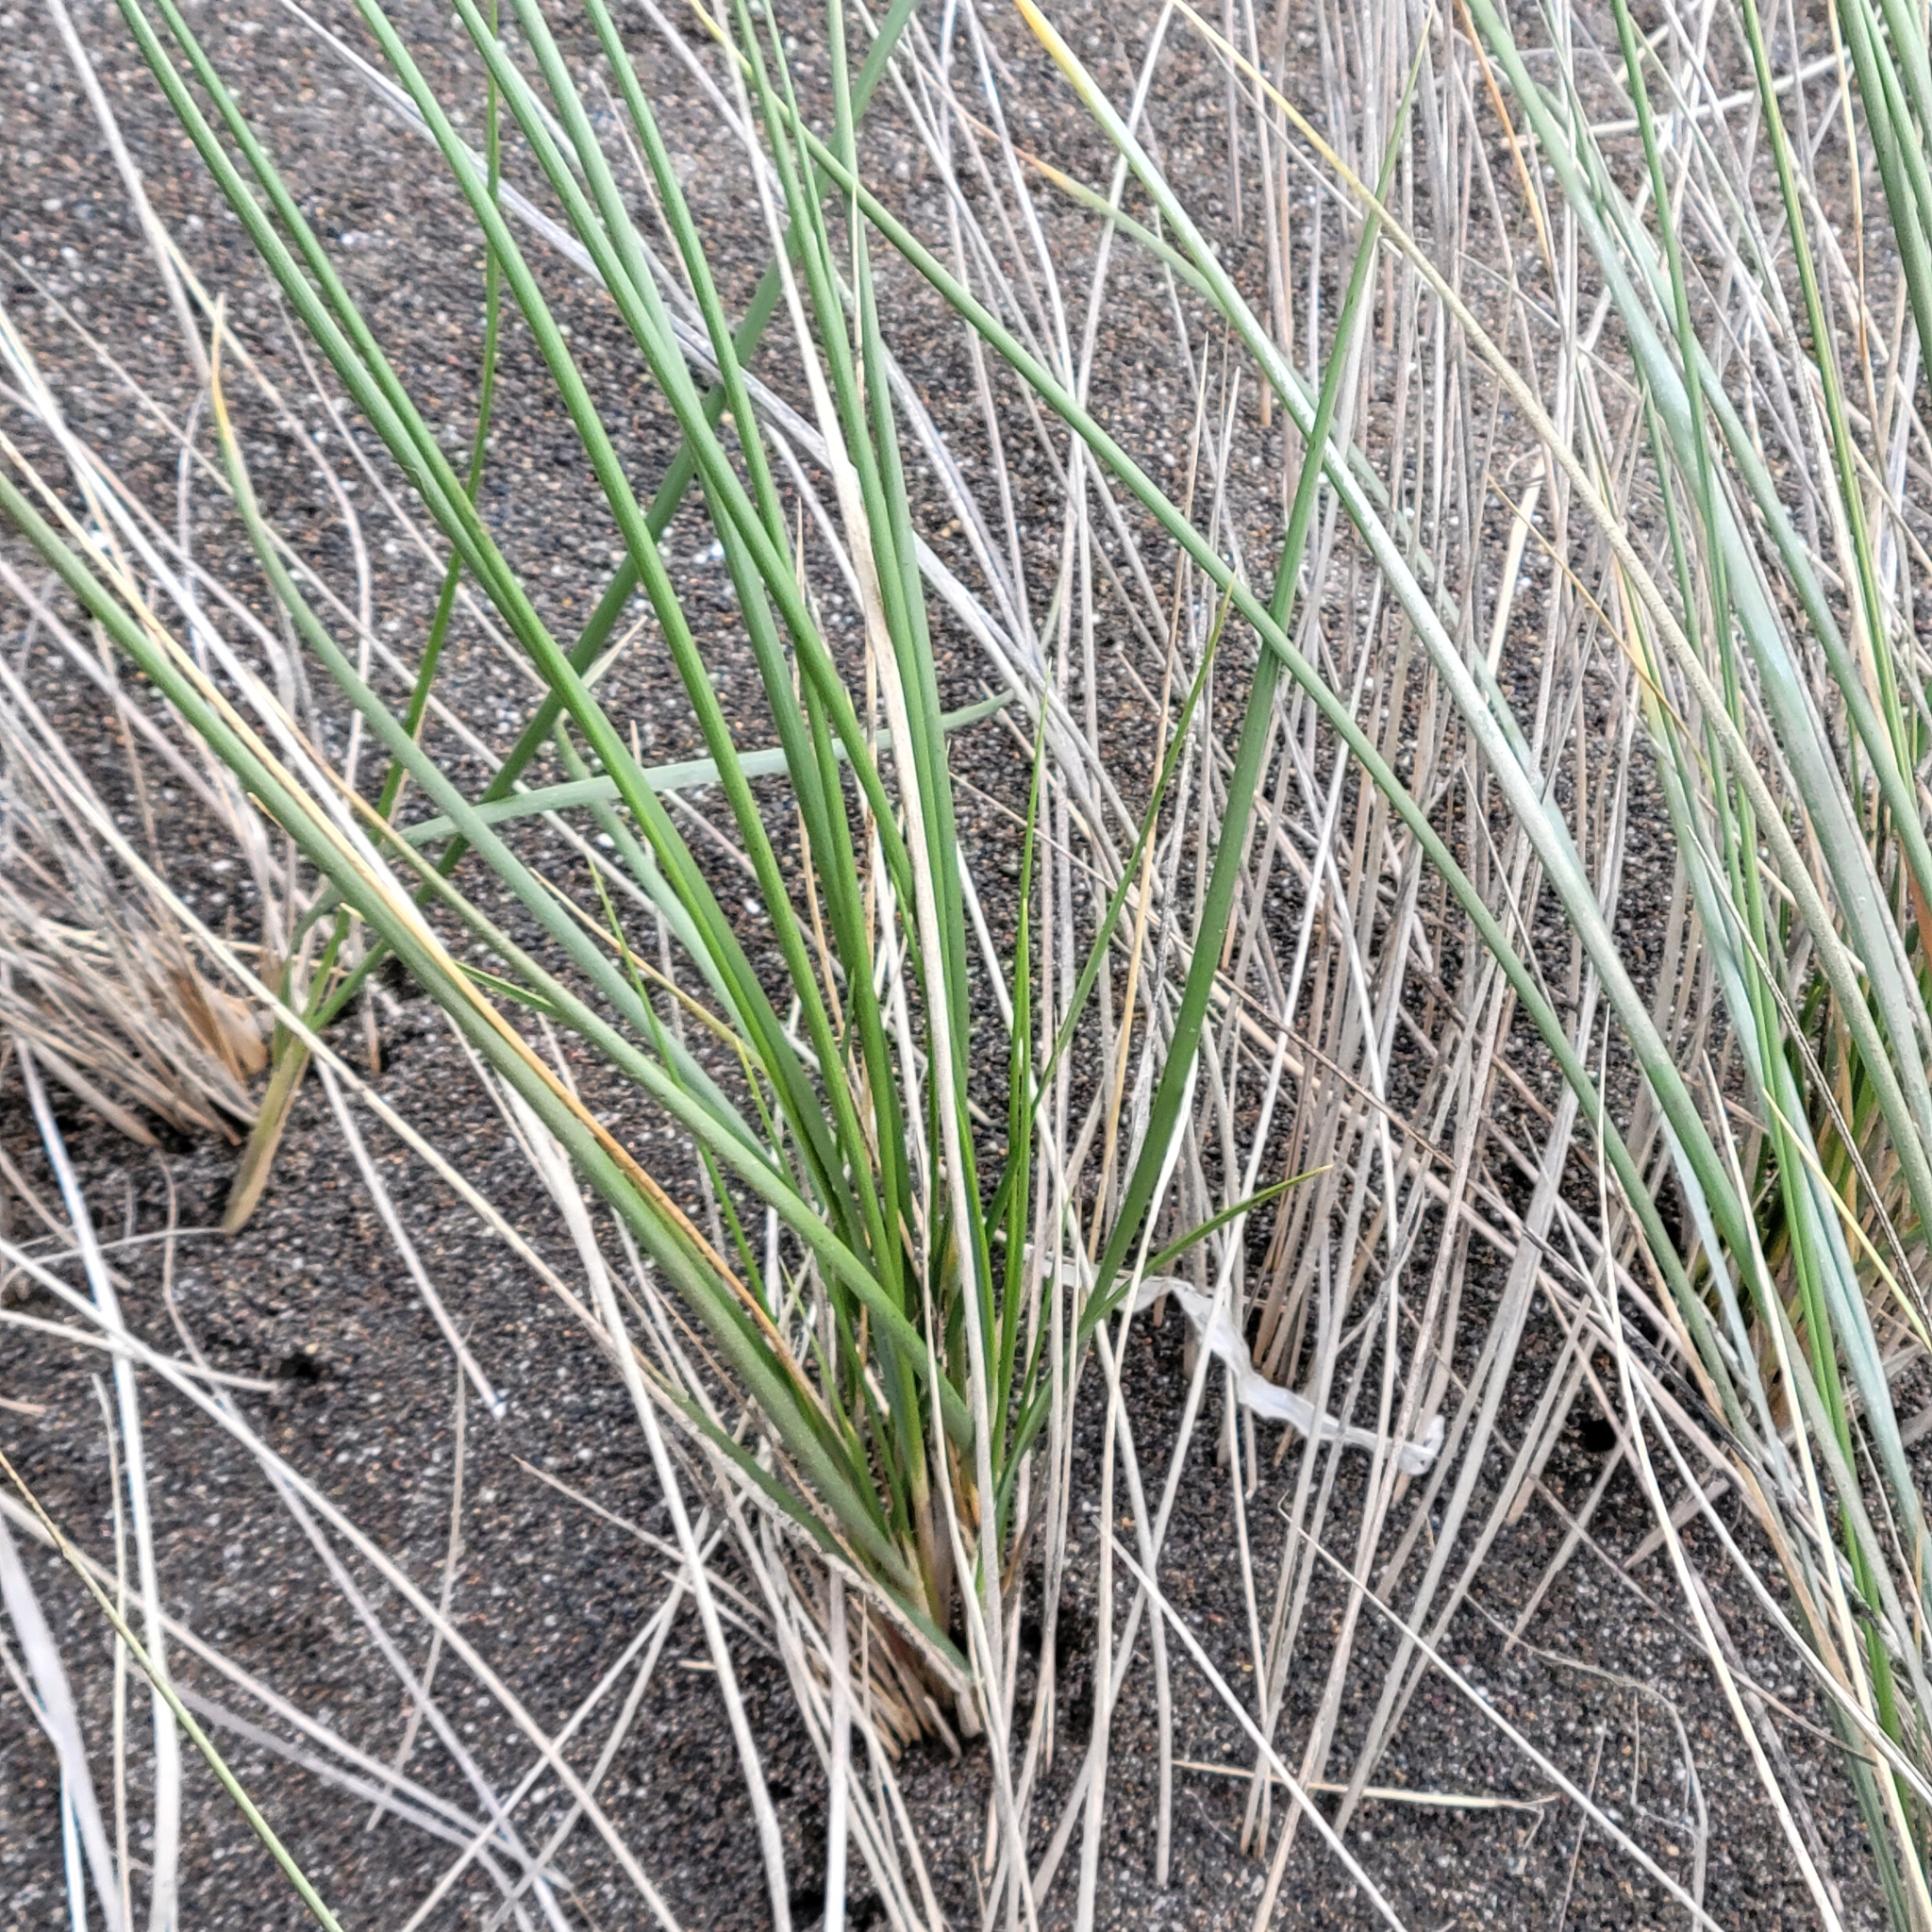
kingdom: Plantae
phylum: Tracheophyta
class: Liliopsida
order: Poales
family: Poaceae
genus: Calamagrostis
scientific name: Calamagrostis arenaria
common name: European beachgrass
